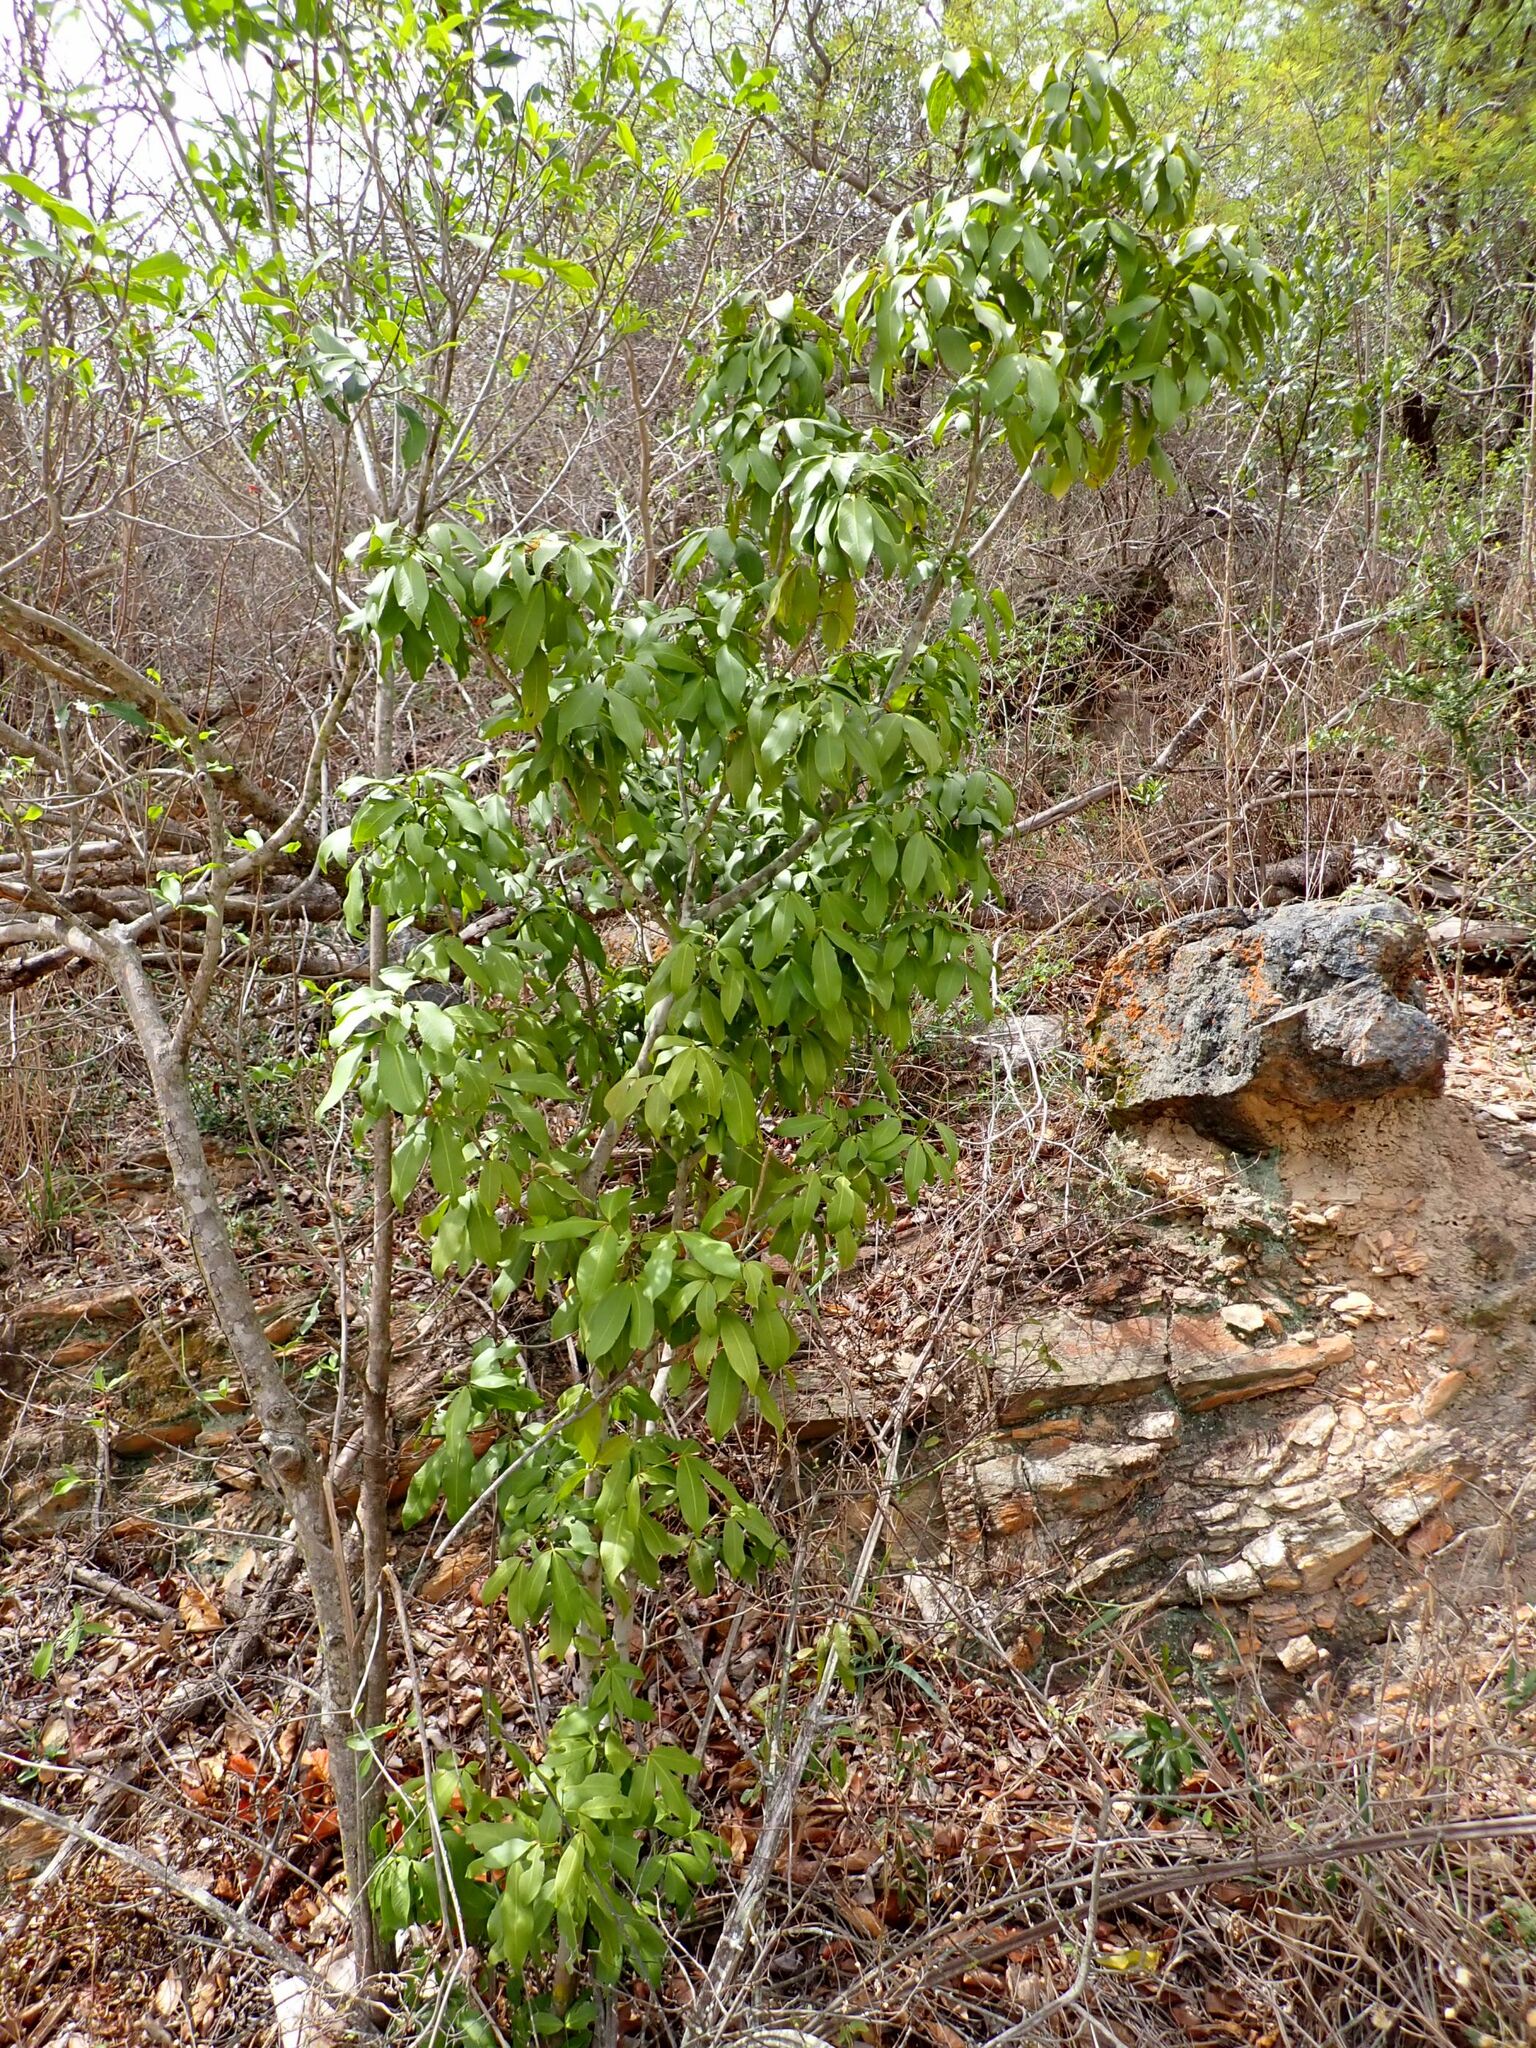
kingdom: Plantae
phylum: Tracheophyta
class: Magnoliopsida
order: Sapindales
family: Rutaceae
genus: Vepris
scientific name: Vepris reflexa
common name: Rock white ironwood
